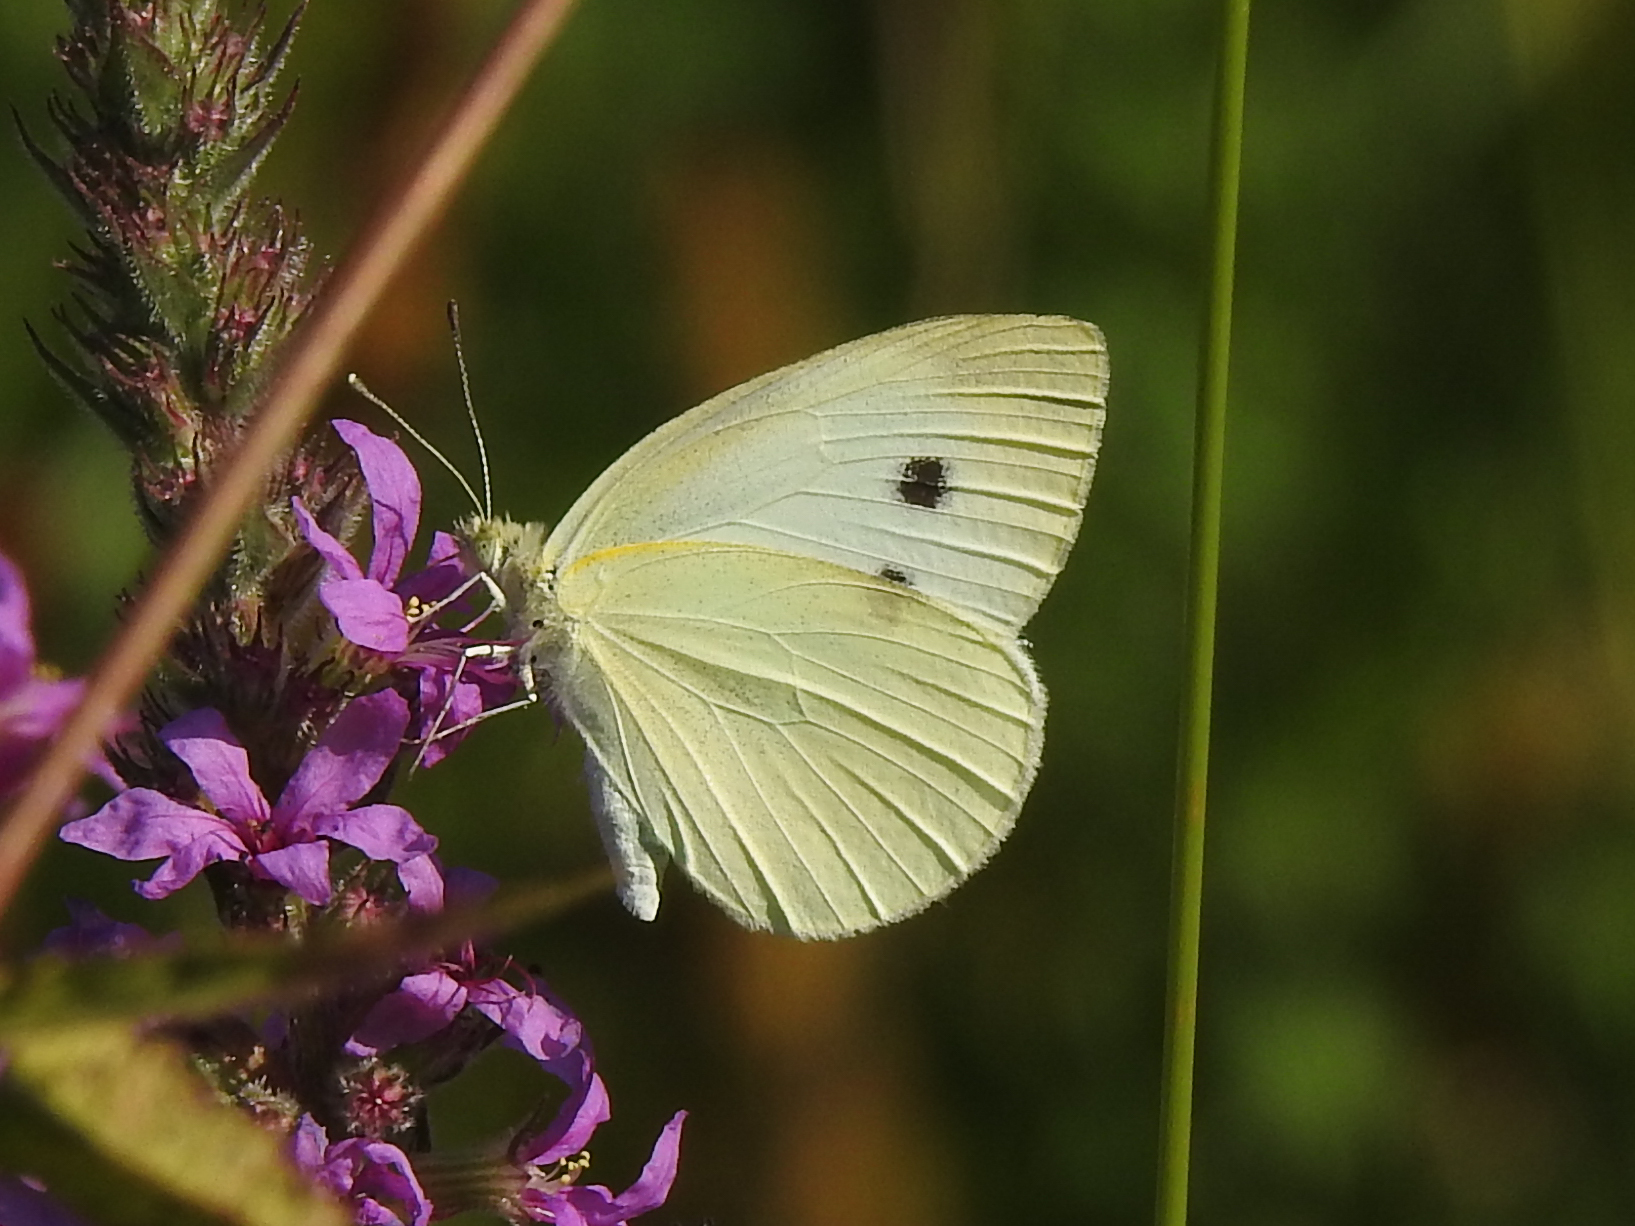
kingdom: Animalia
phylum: Arthropoda
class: Insecta
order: Lepidoptera
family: Pieridae
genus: Pieris
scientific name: Pieris rapae
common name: Small white
